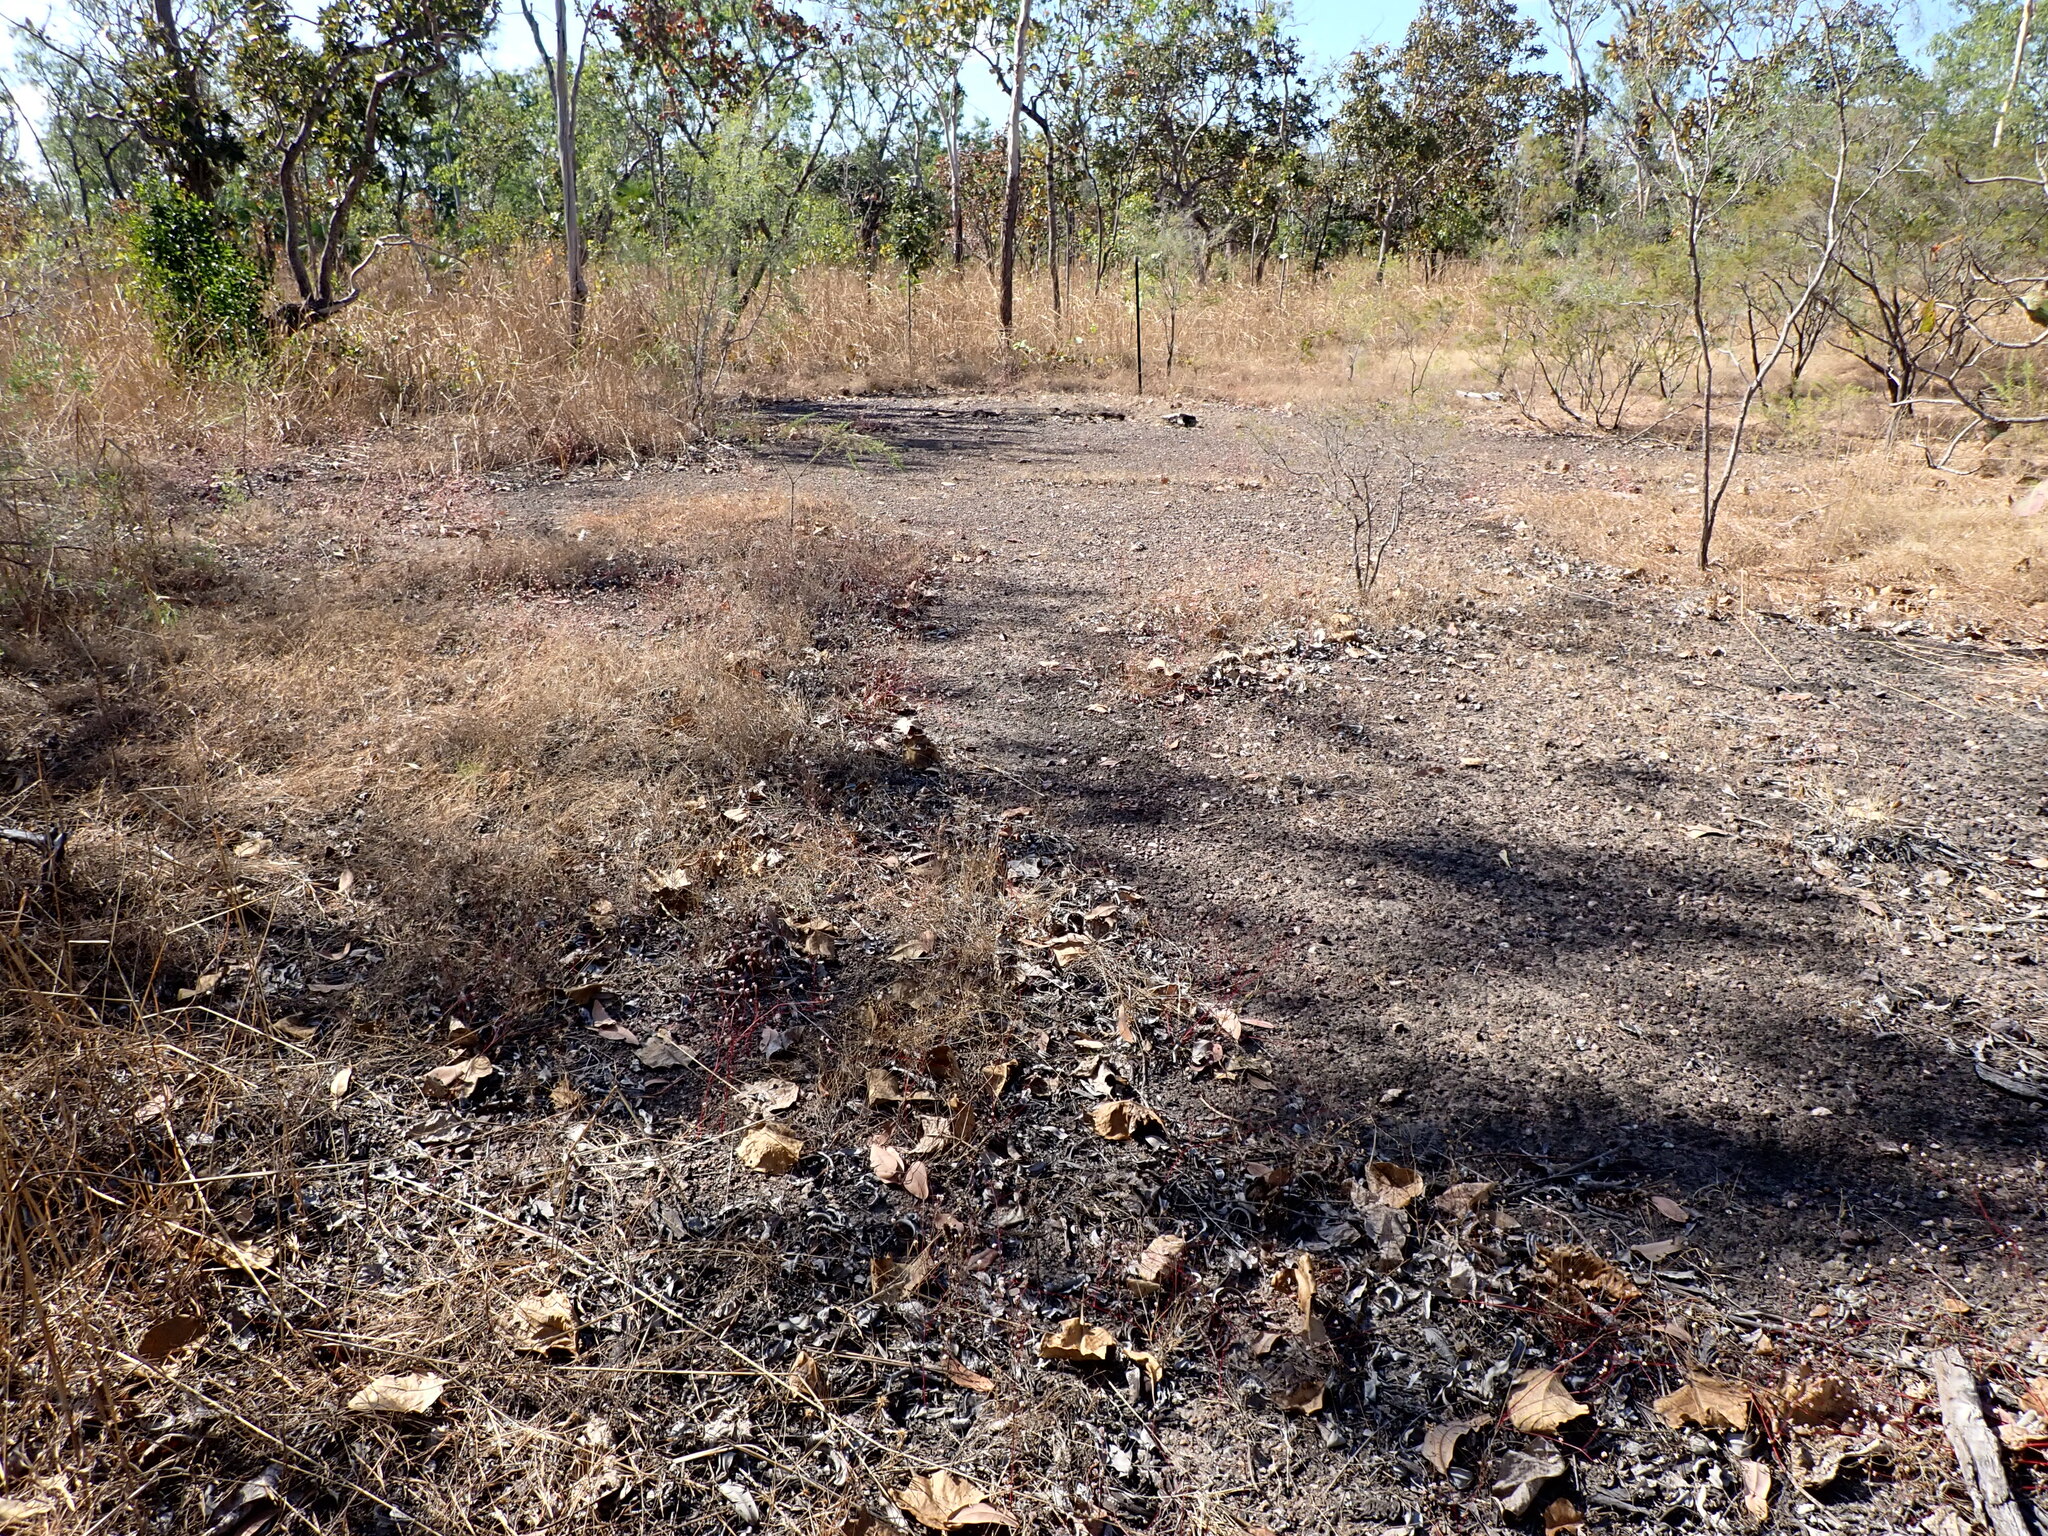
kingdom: Plantae
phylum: Tracheophyta
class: Magnoliopsida
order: Caryophyllales
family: Amaranthaceae
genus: Ptilotus
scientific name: Ptilotus corymbosus
